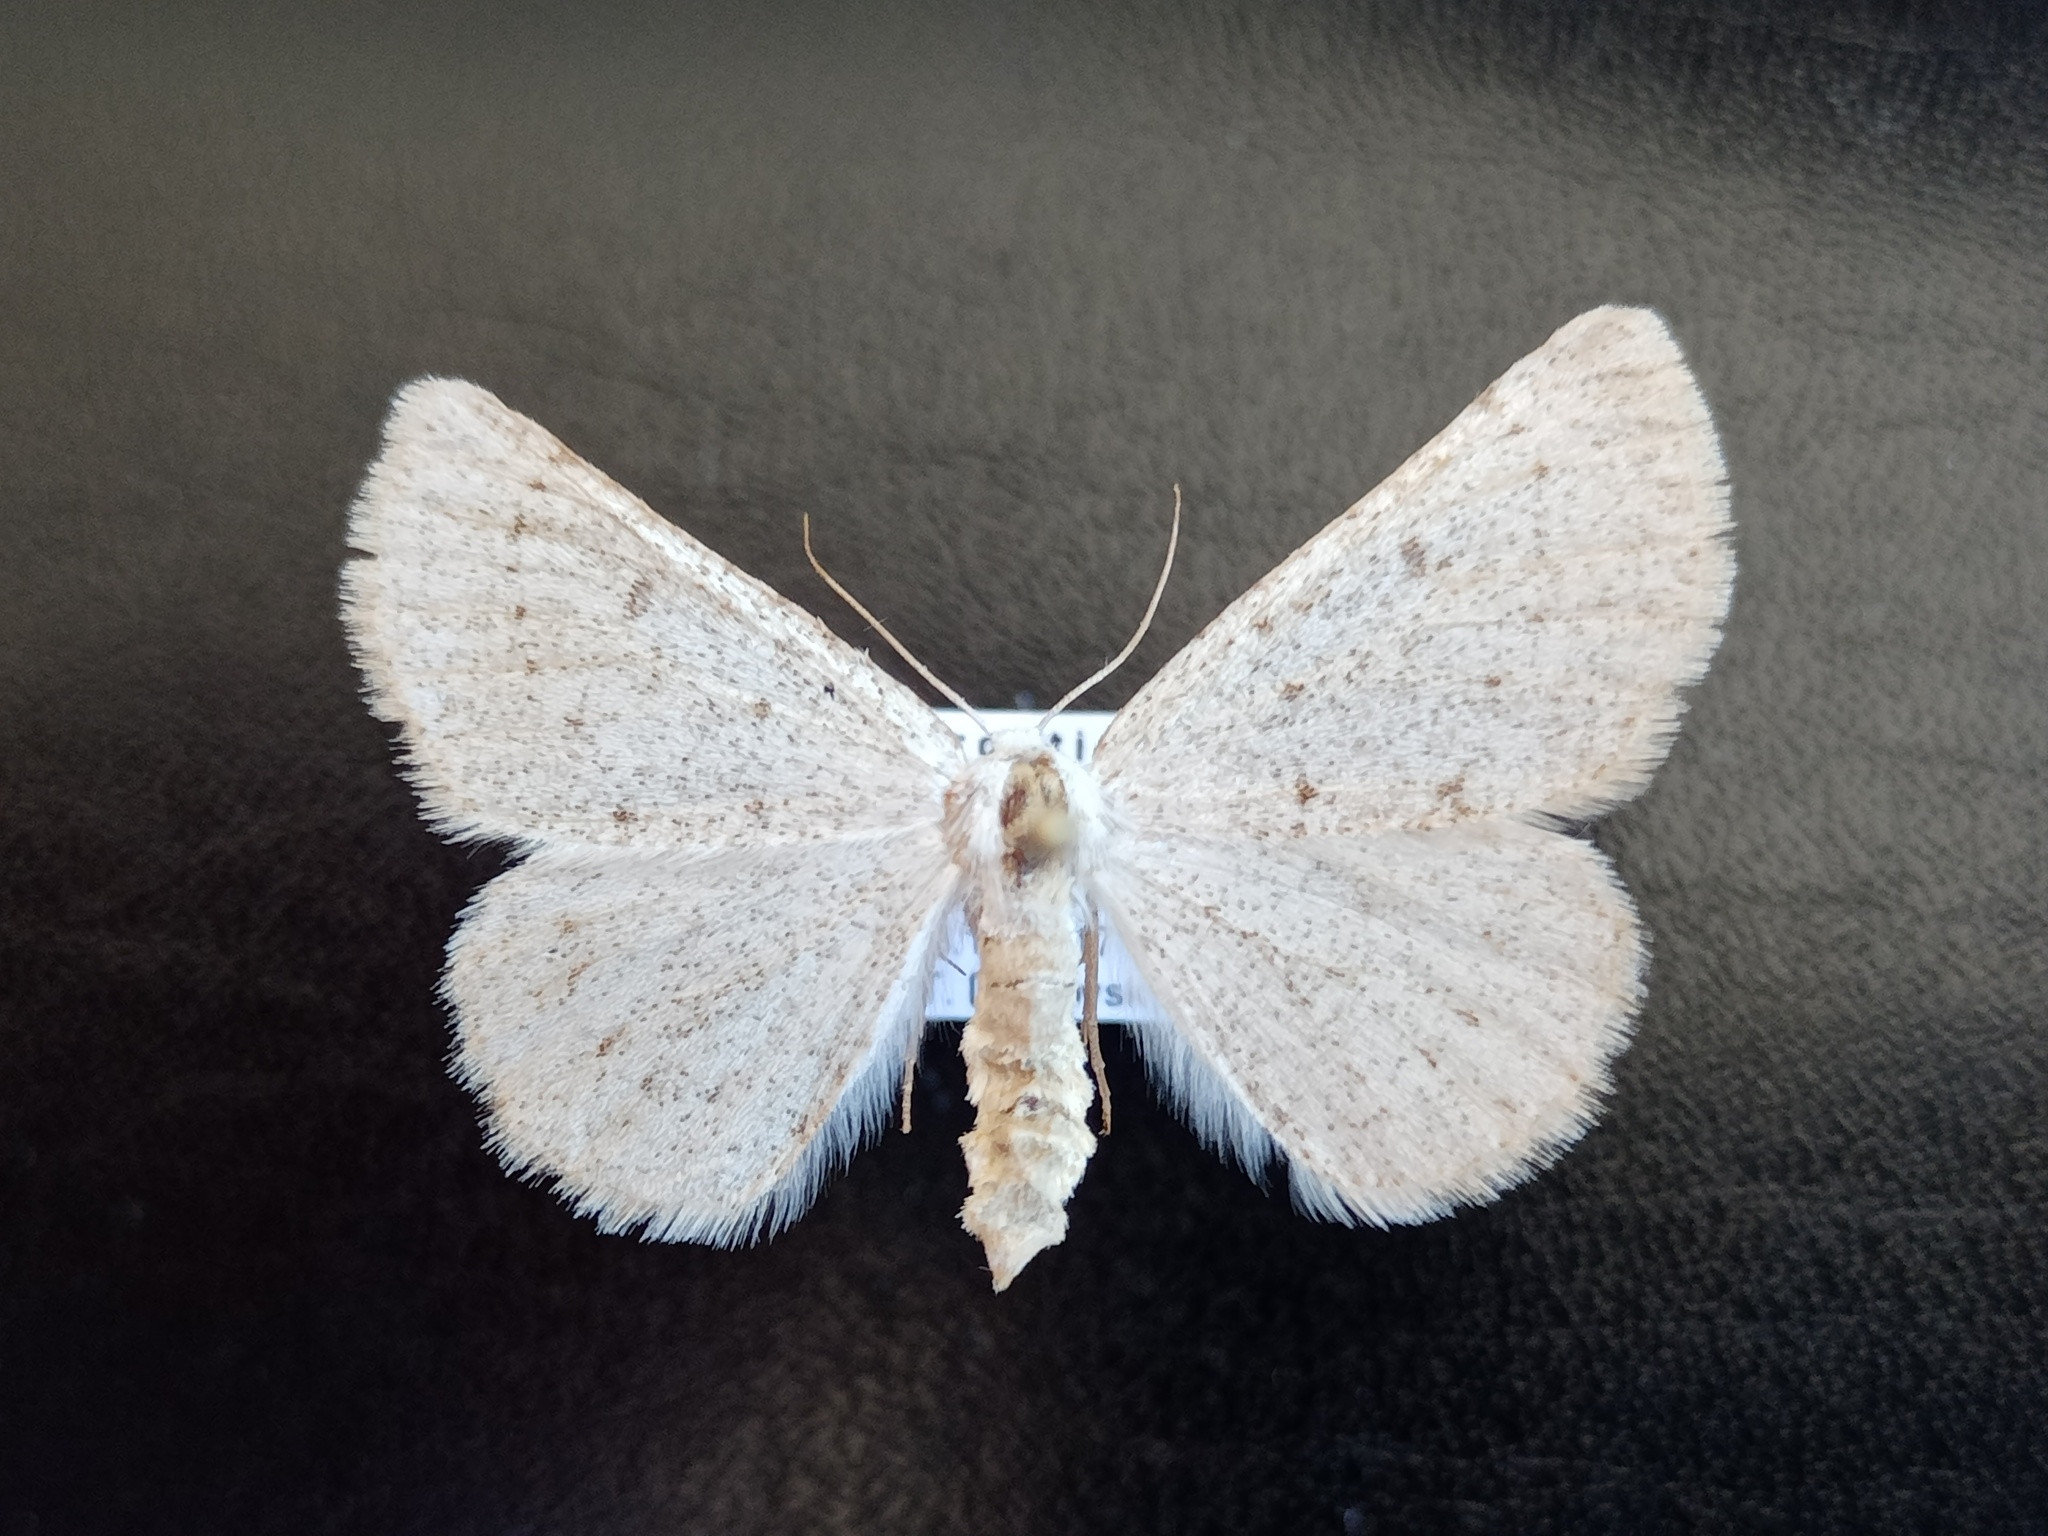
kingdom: Animalia
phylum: Arthropoda
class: Insecta
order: Lepidoptera
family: Geometridae
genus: Dyscia
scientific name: Dyscia raunaria
